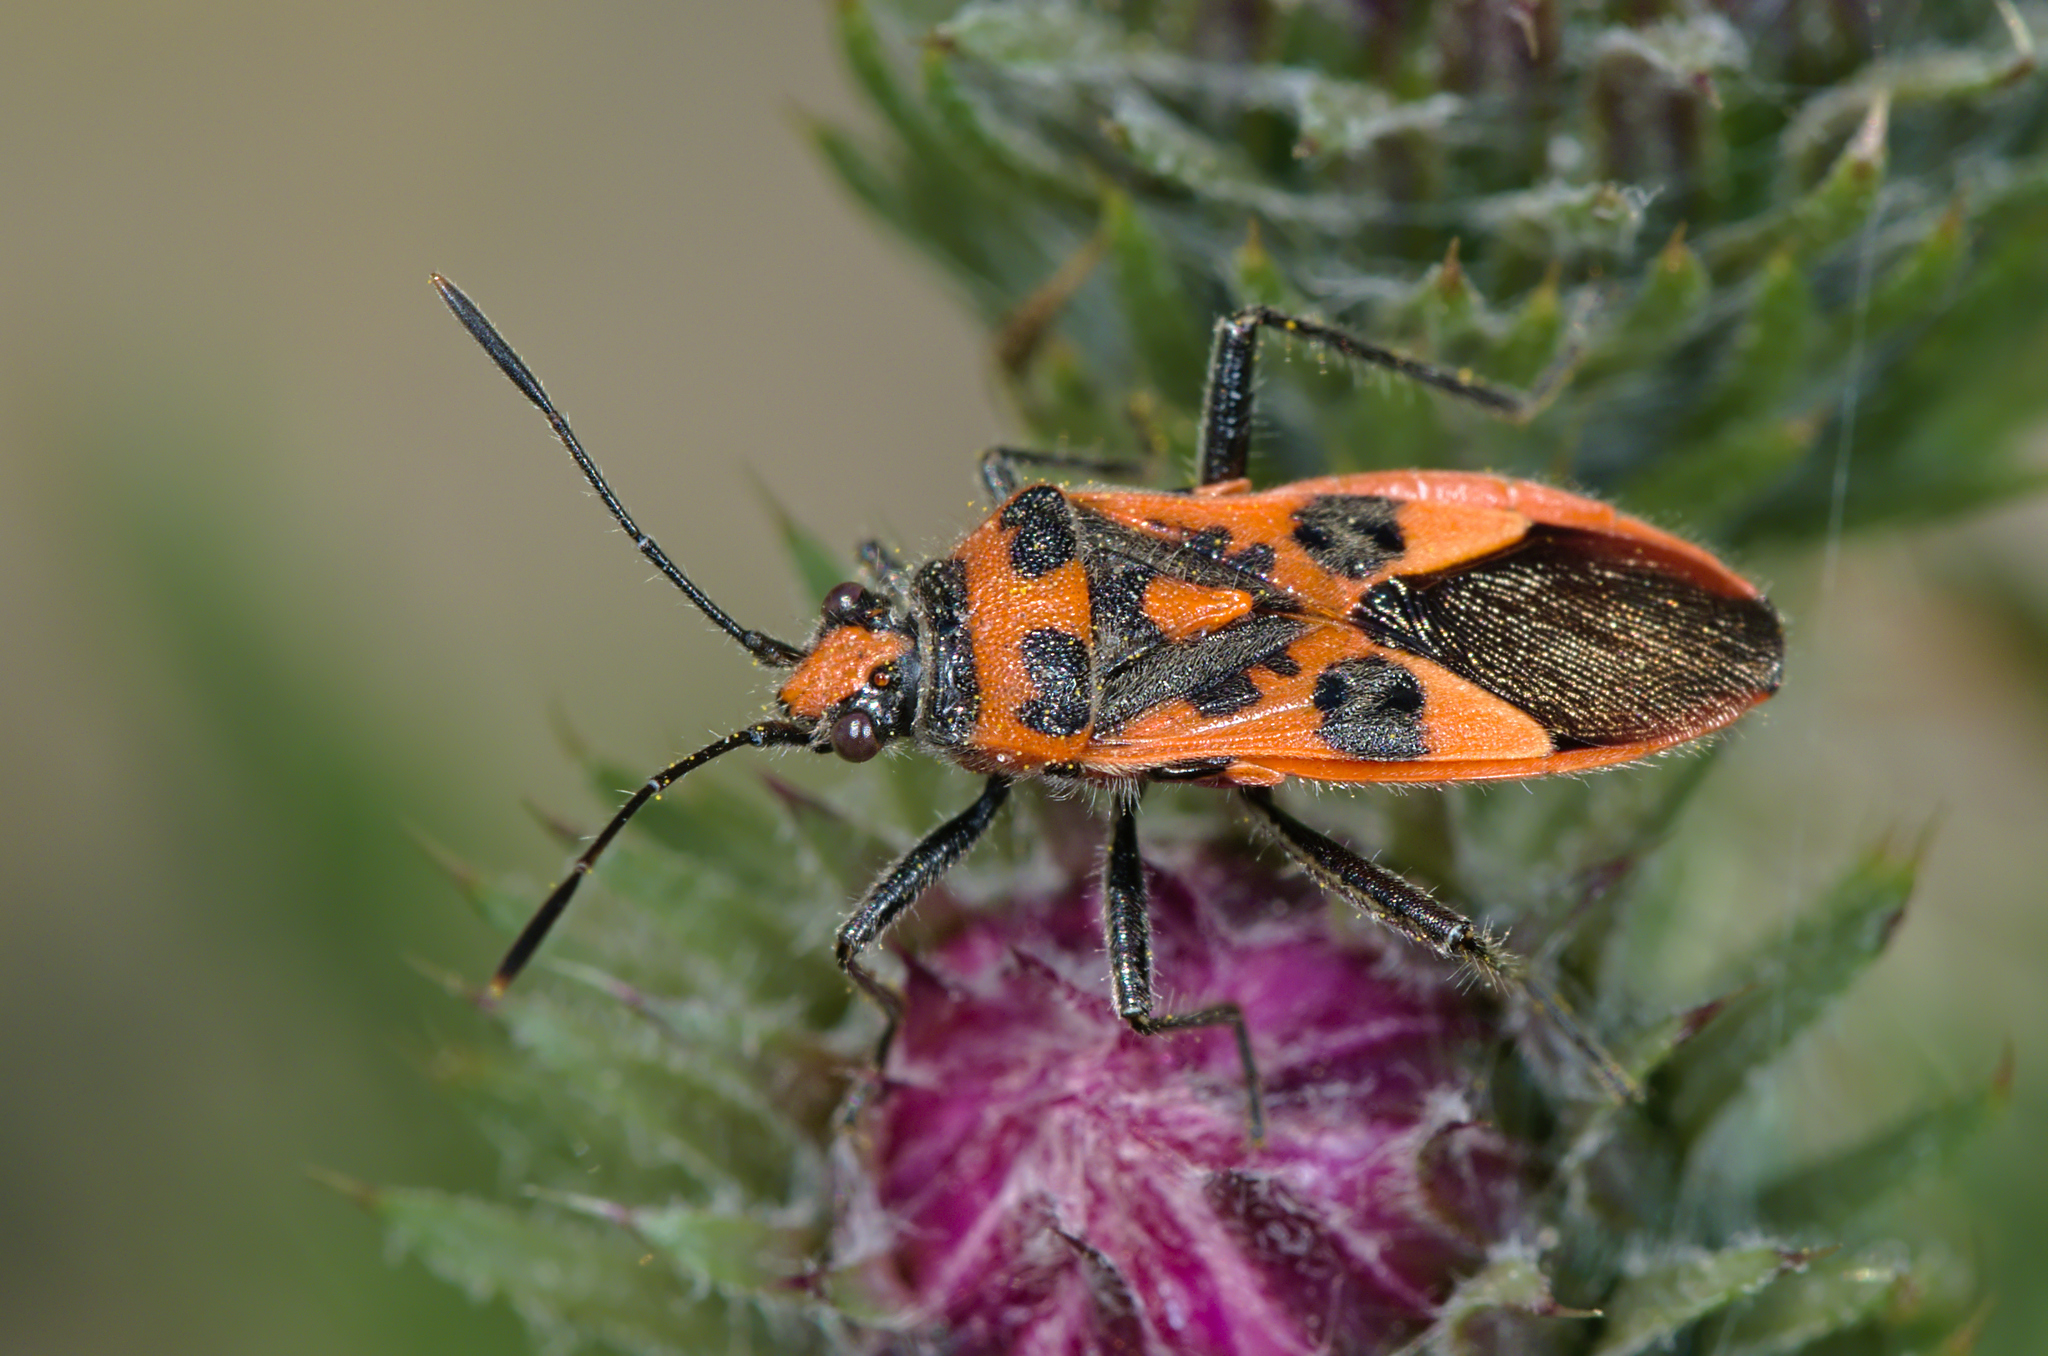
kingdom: Animalia
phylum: Arthropoda
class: Insecta
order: Hemiptera
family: Rhopalidae
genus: Corizus
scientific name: Corizus hyoscyami
